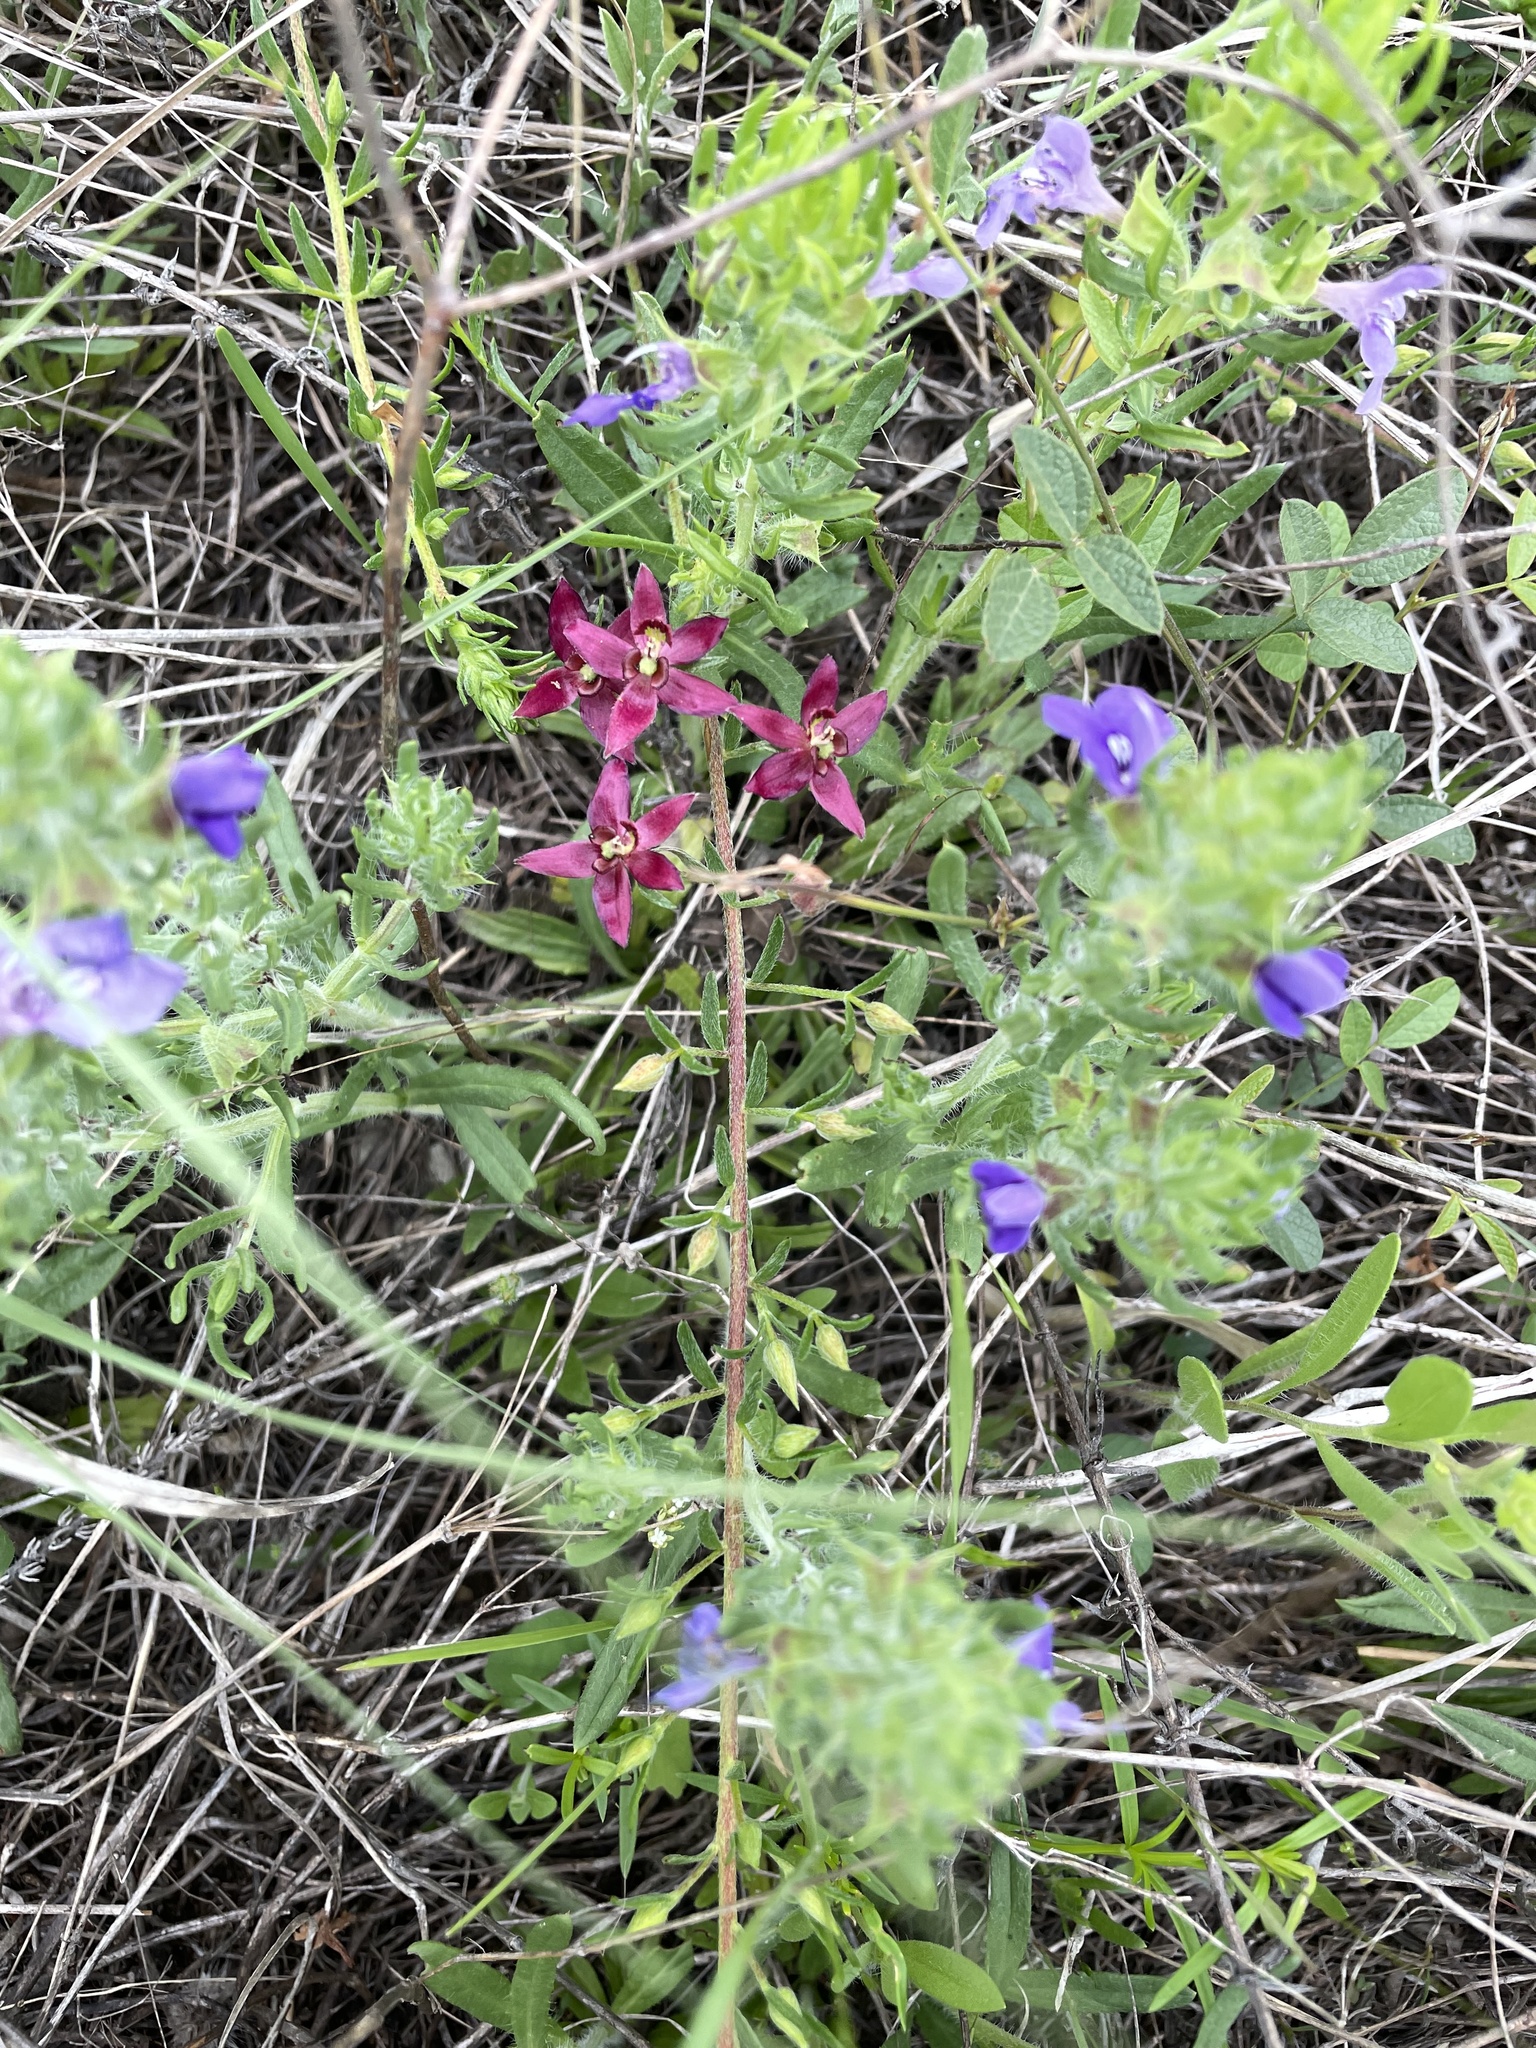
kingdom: Plantae
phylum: Tracheophyta
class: Magnoliopsida
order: Zygophyllales
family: Krameriaceae
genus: Krameria
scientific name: Krameria lanceolata
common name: Ratany
